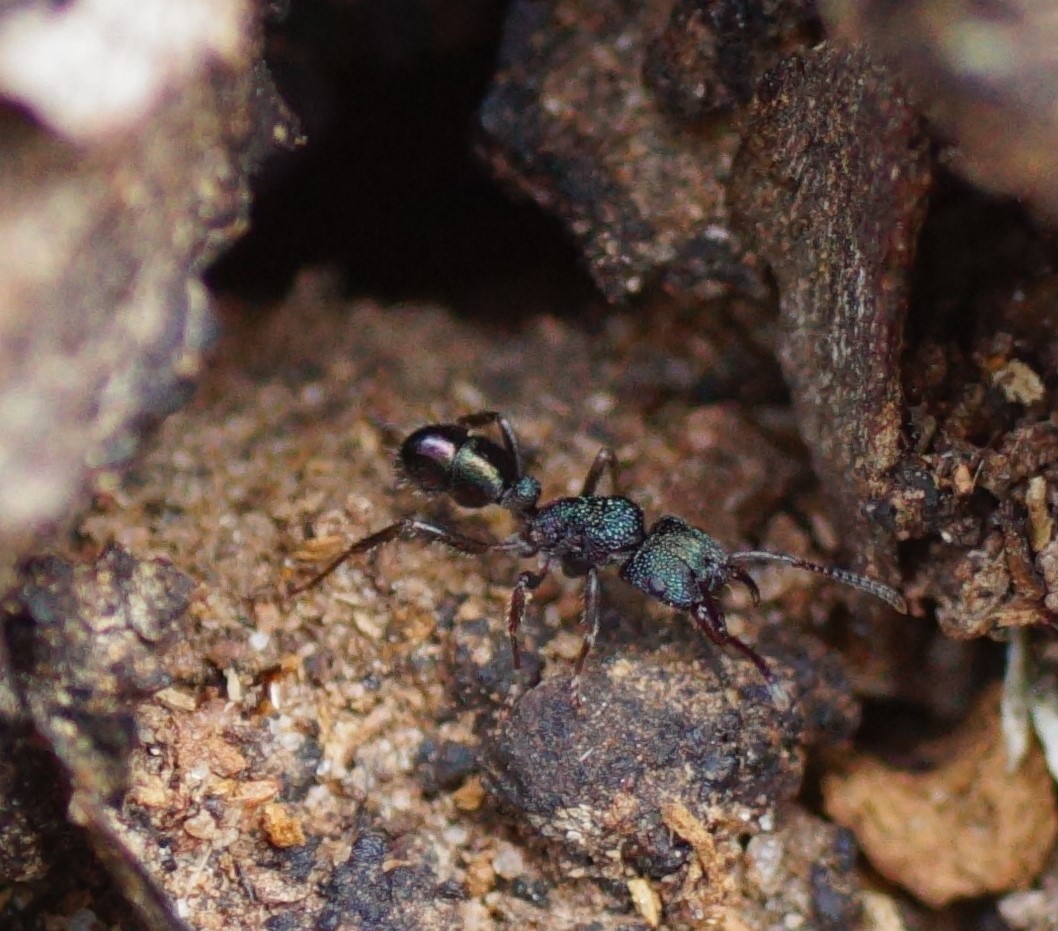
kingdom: Animalia
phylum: Arthropoda
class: Insecta
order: Hymenoptera
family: Formicidae
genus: Rhytidoponera
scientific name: Rhytidoponera metallica
